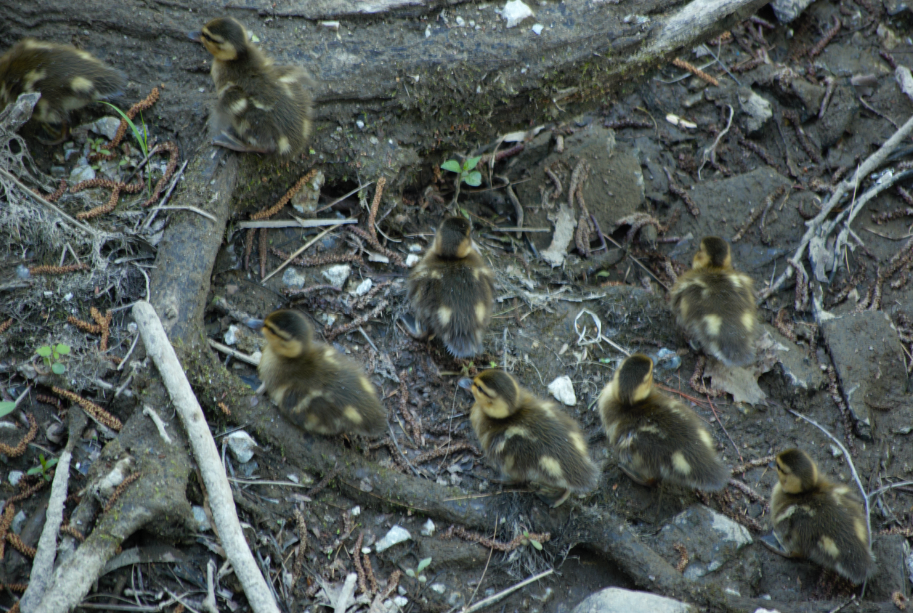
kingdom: Animalia
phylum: Chordata
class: Aves
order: Anseriformes
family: Anatidae
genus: Anas
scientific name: Anas platyrhynchos
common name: Mallard
